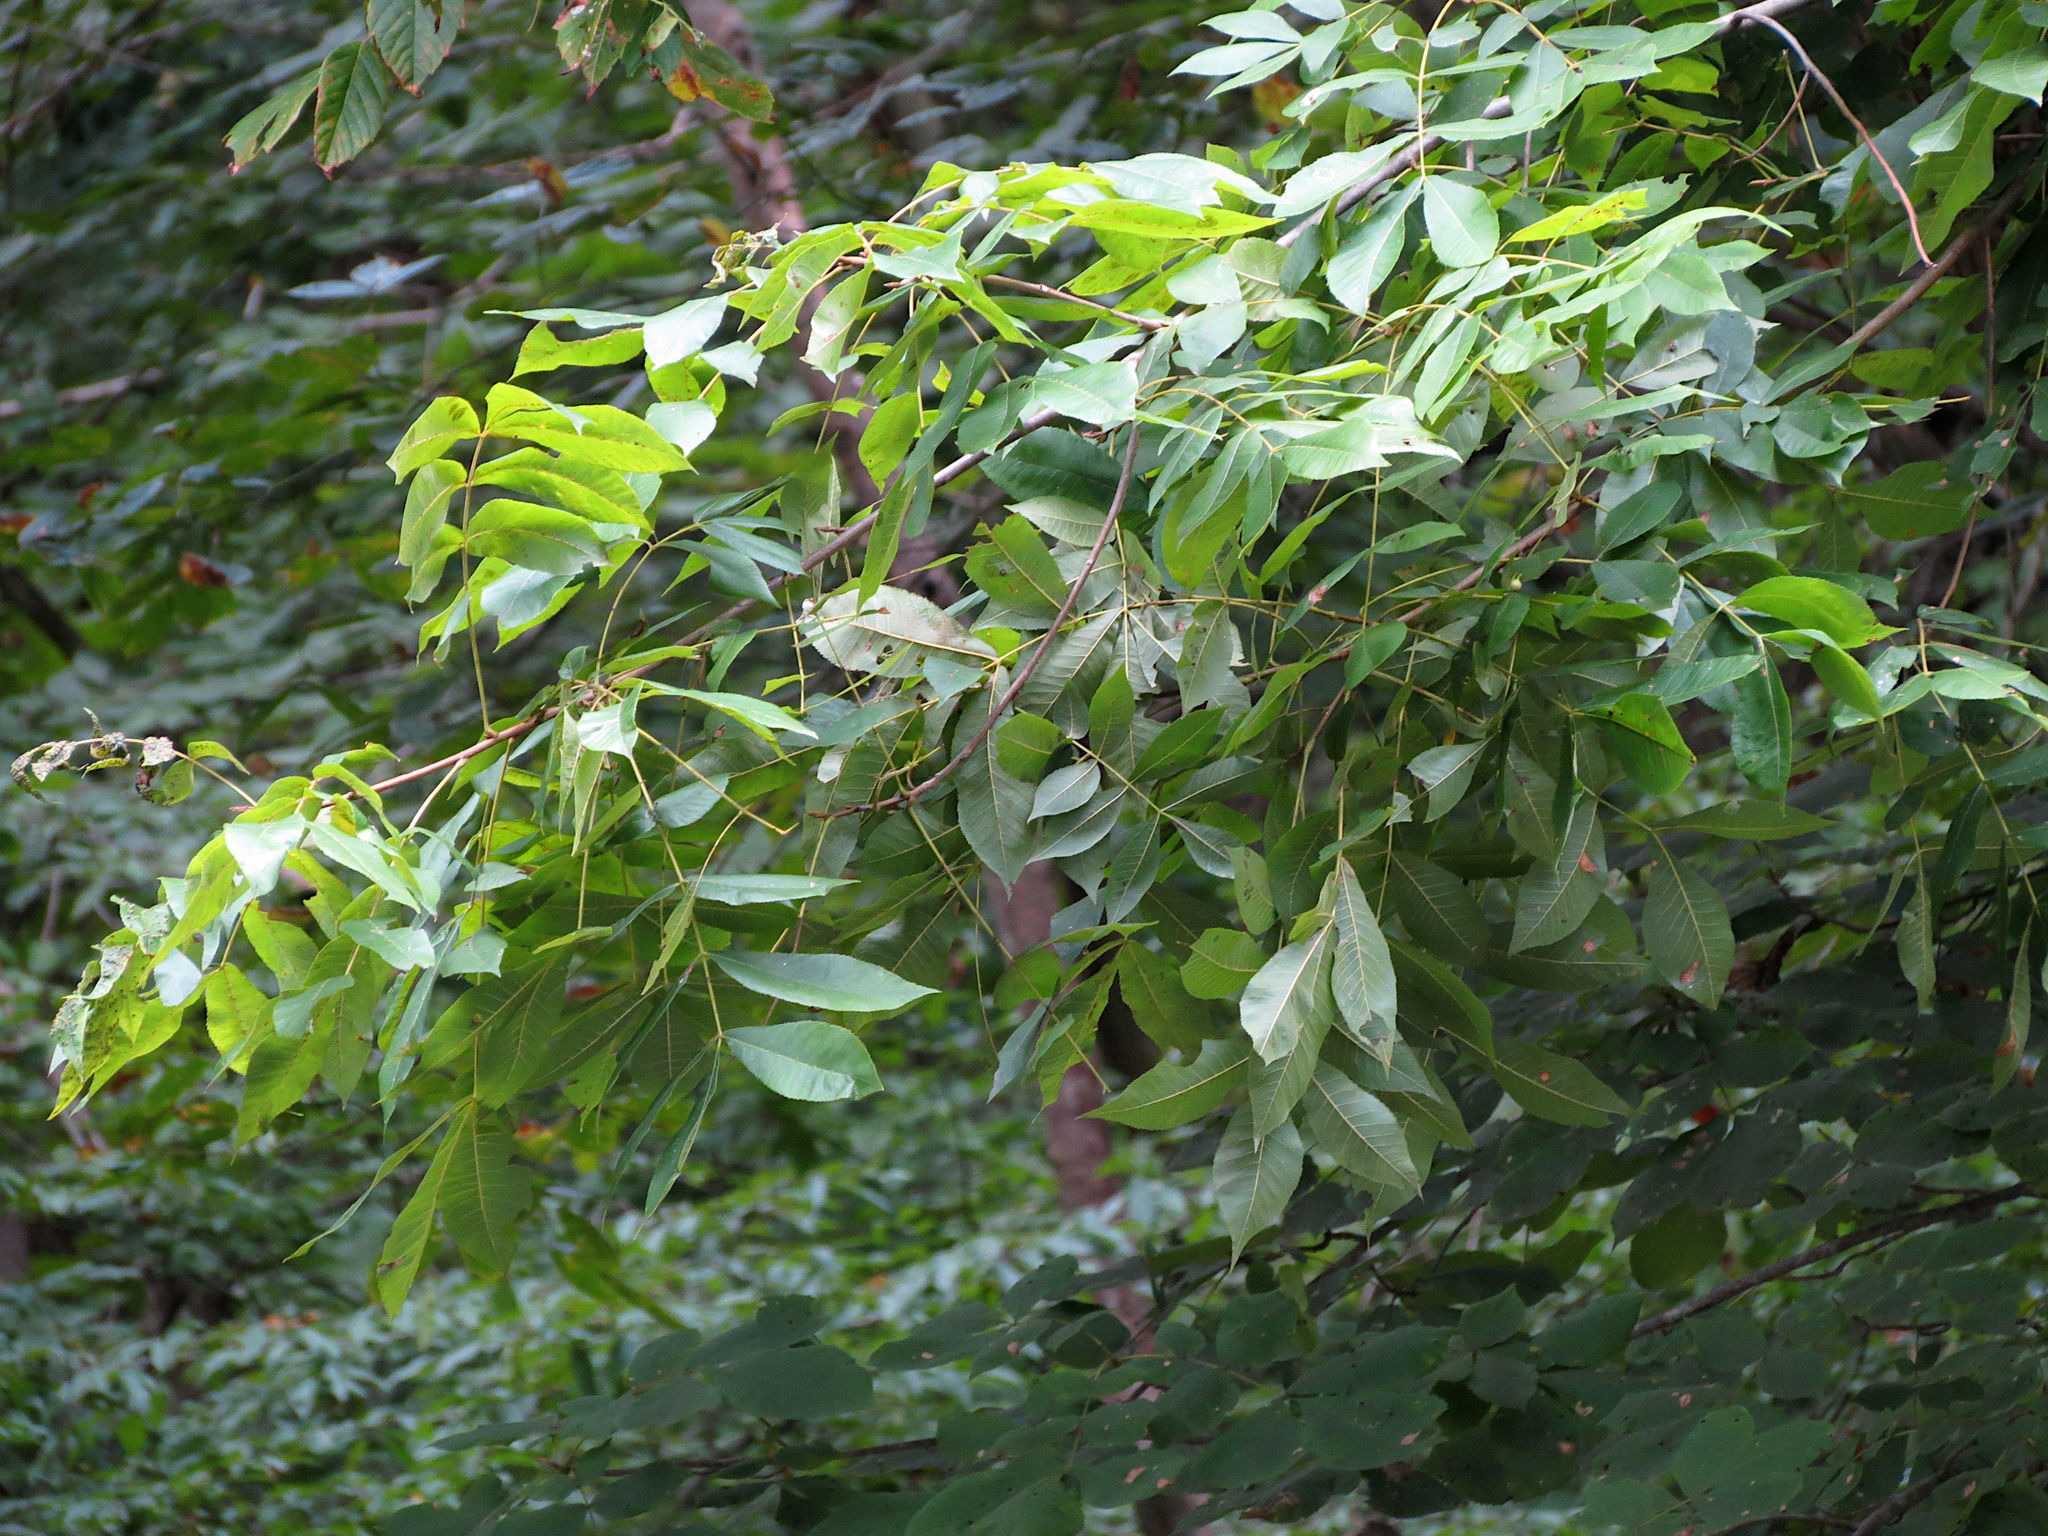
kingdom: Plantae
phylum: Tracheophyta
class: Magnoliopsida
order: Fagales
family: Juglandaceae
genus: Carya
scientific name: Carya cordiformis
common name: Bitternut hickory
